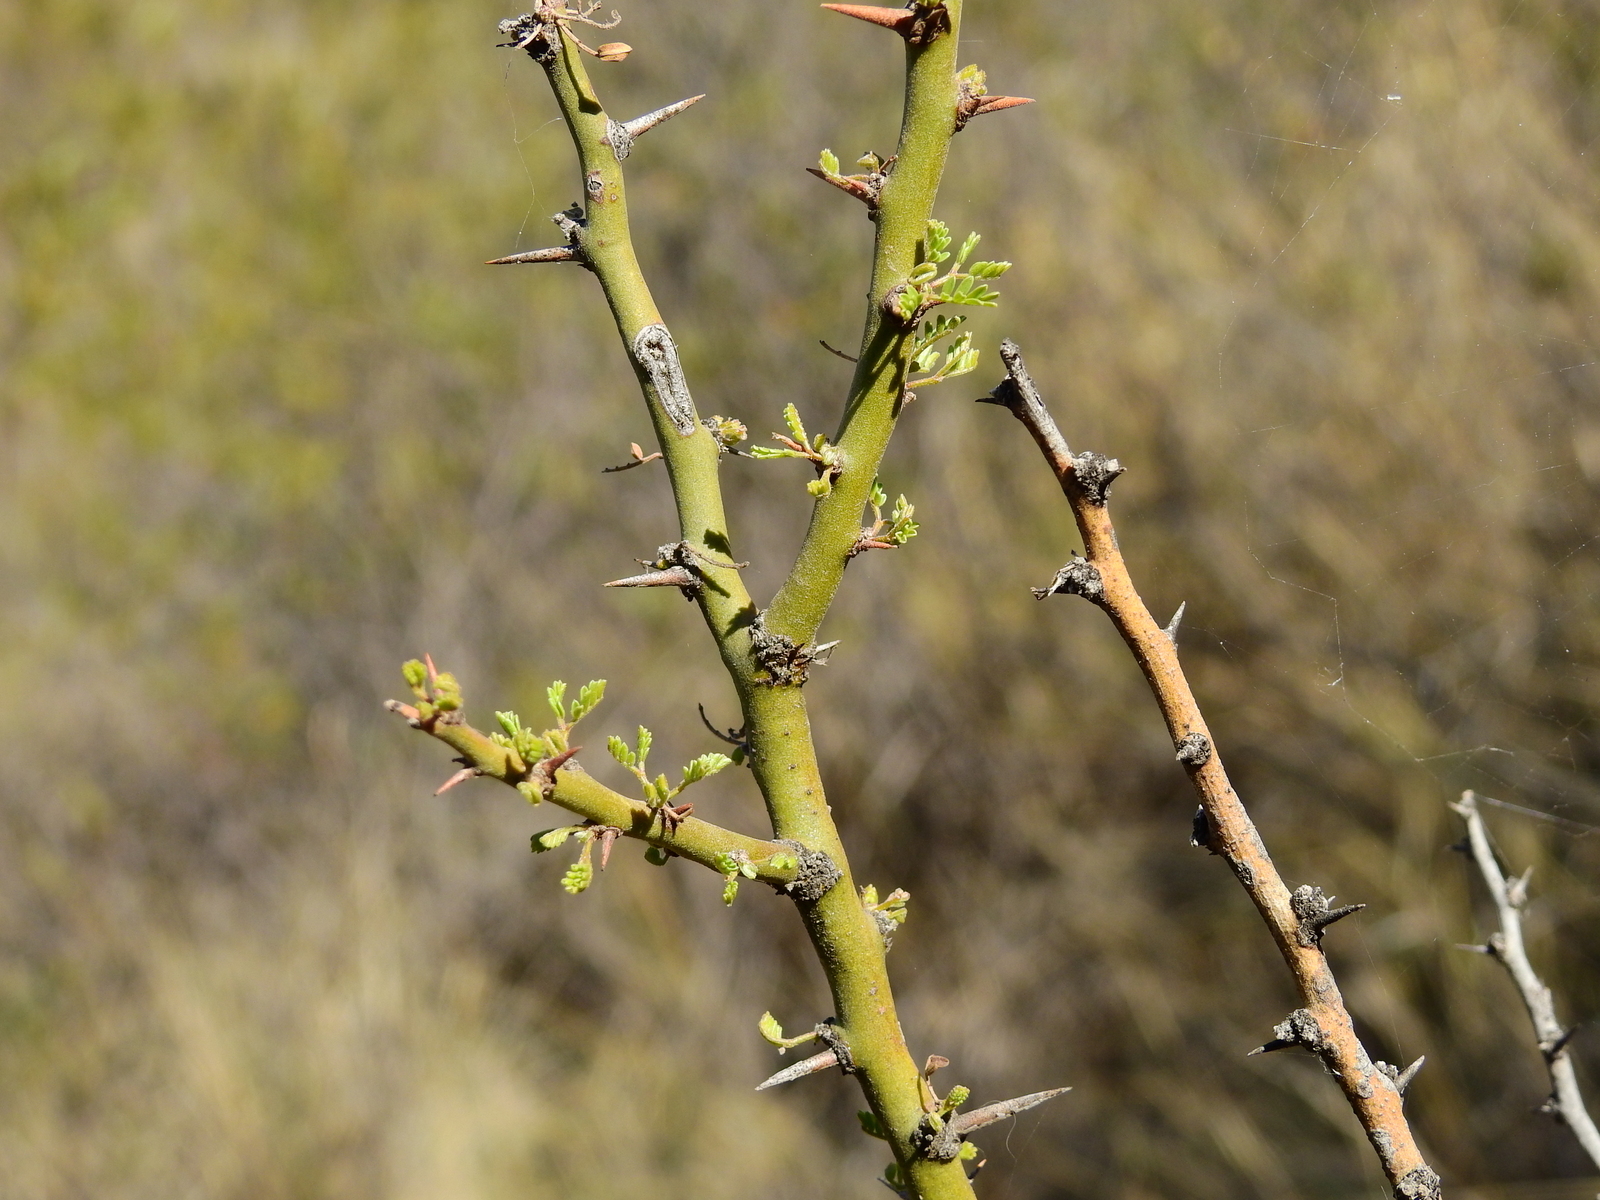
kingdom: Plantae
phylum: Tracheophyta
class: Magnoliopsida
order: Fabales
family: Fabaceae
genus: Parkinsonia
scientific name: Parkinsonia praecox
